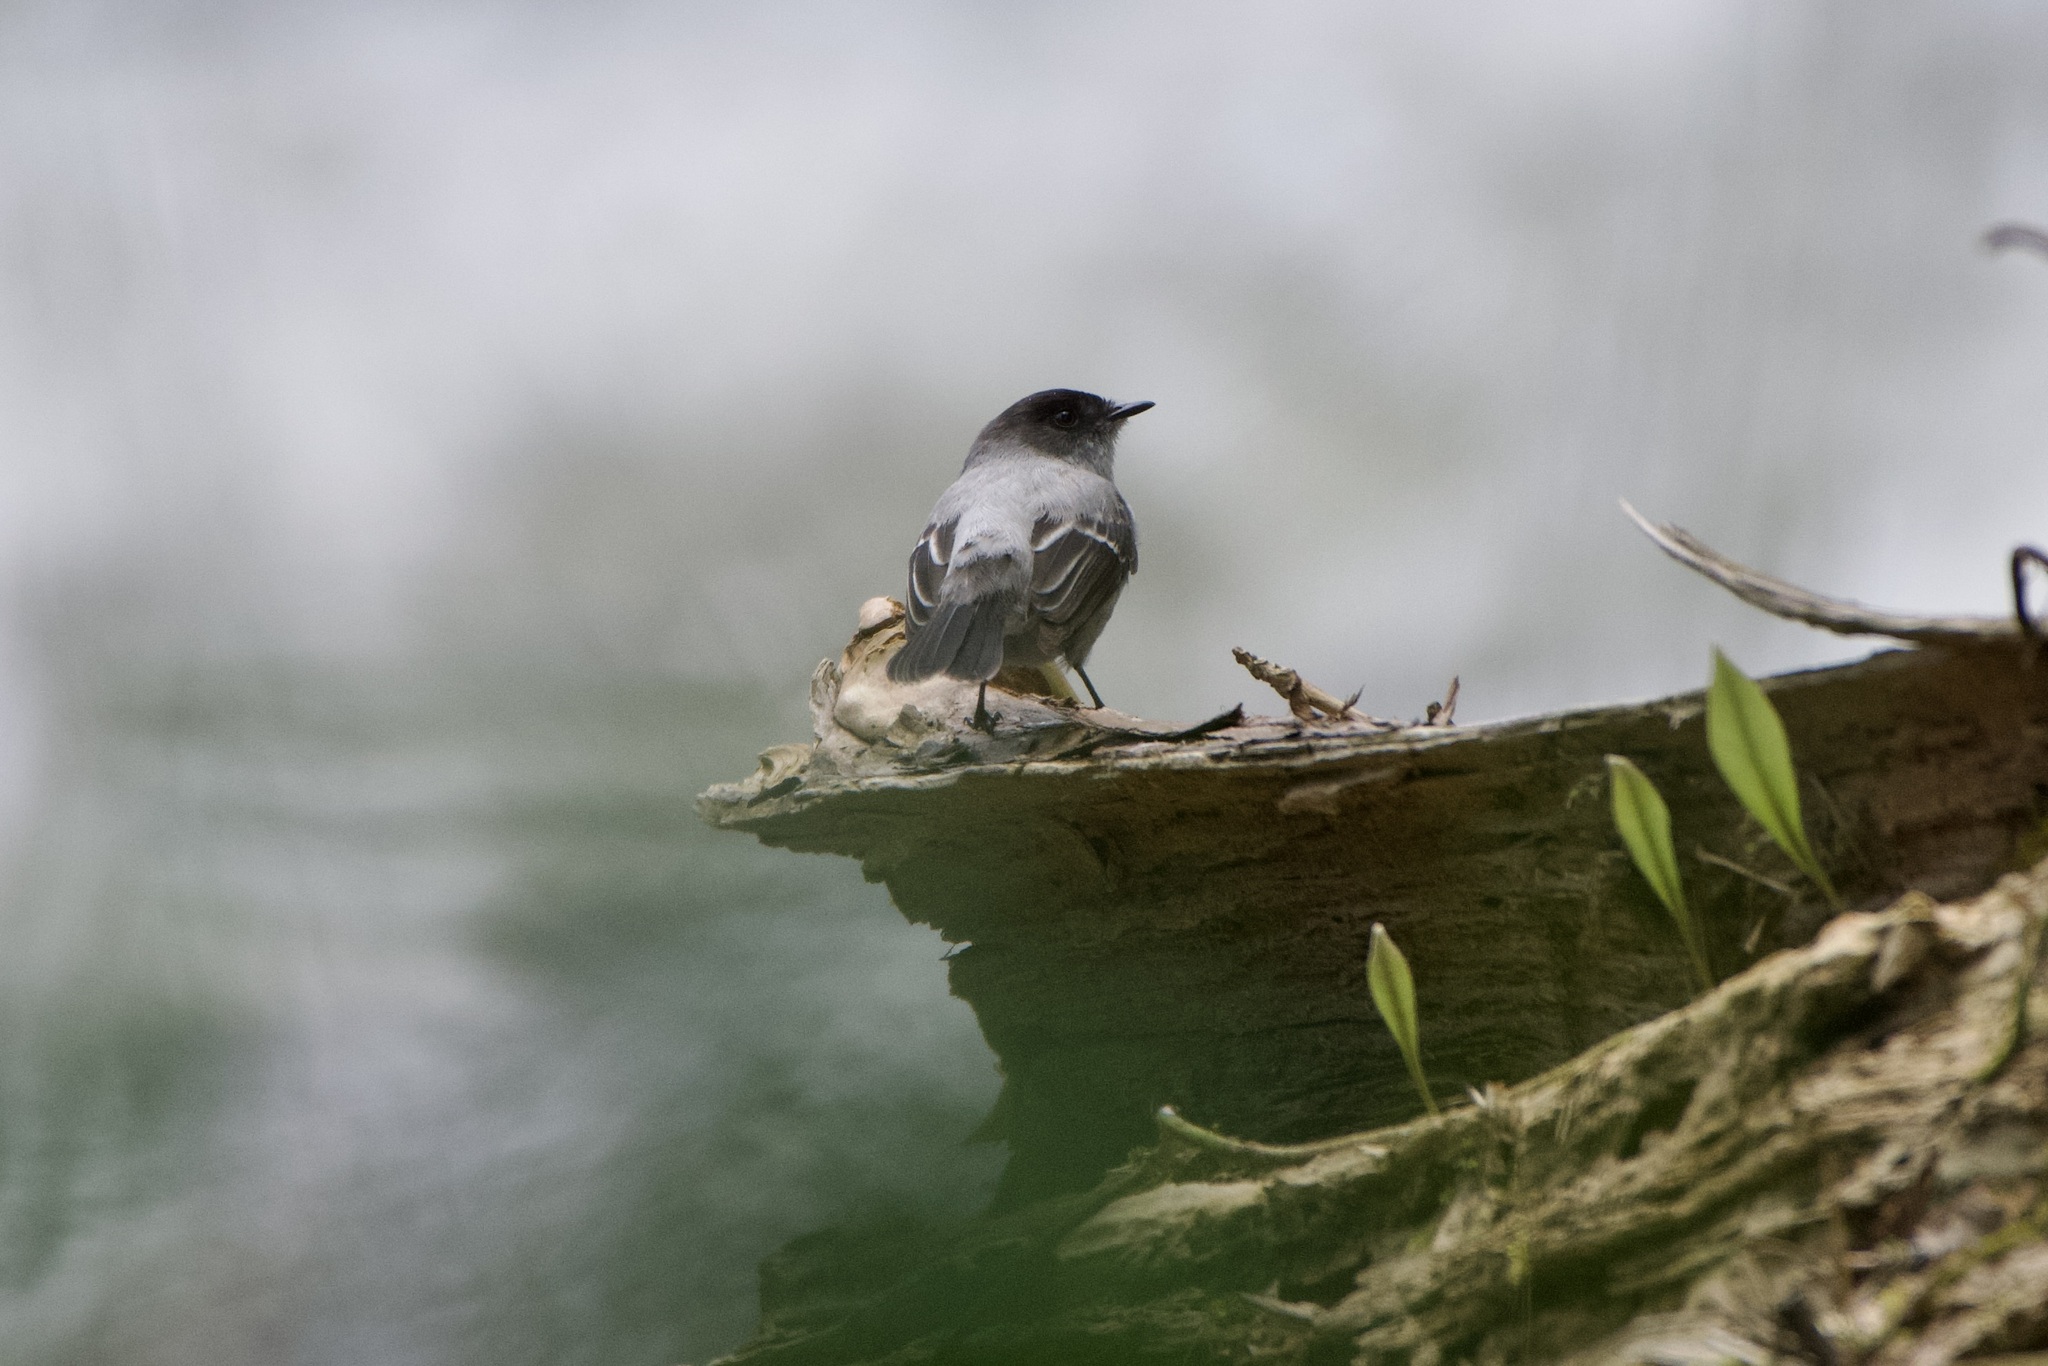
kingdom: Animalia
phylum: Chordata
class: Aves
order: Passeriformes
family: Tyrannidae
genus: Serpophaga
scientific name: Serpophaga cinerea
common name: Torrent tyrannulet
